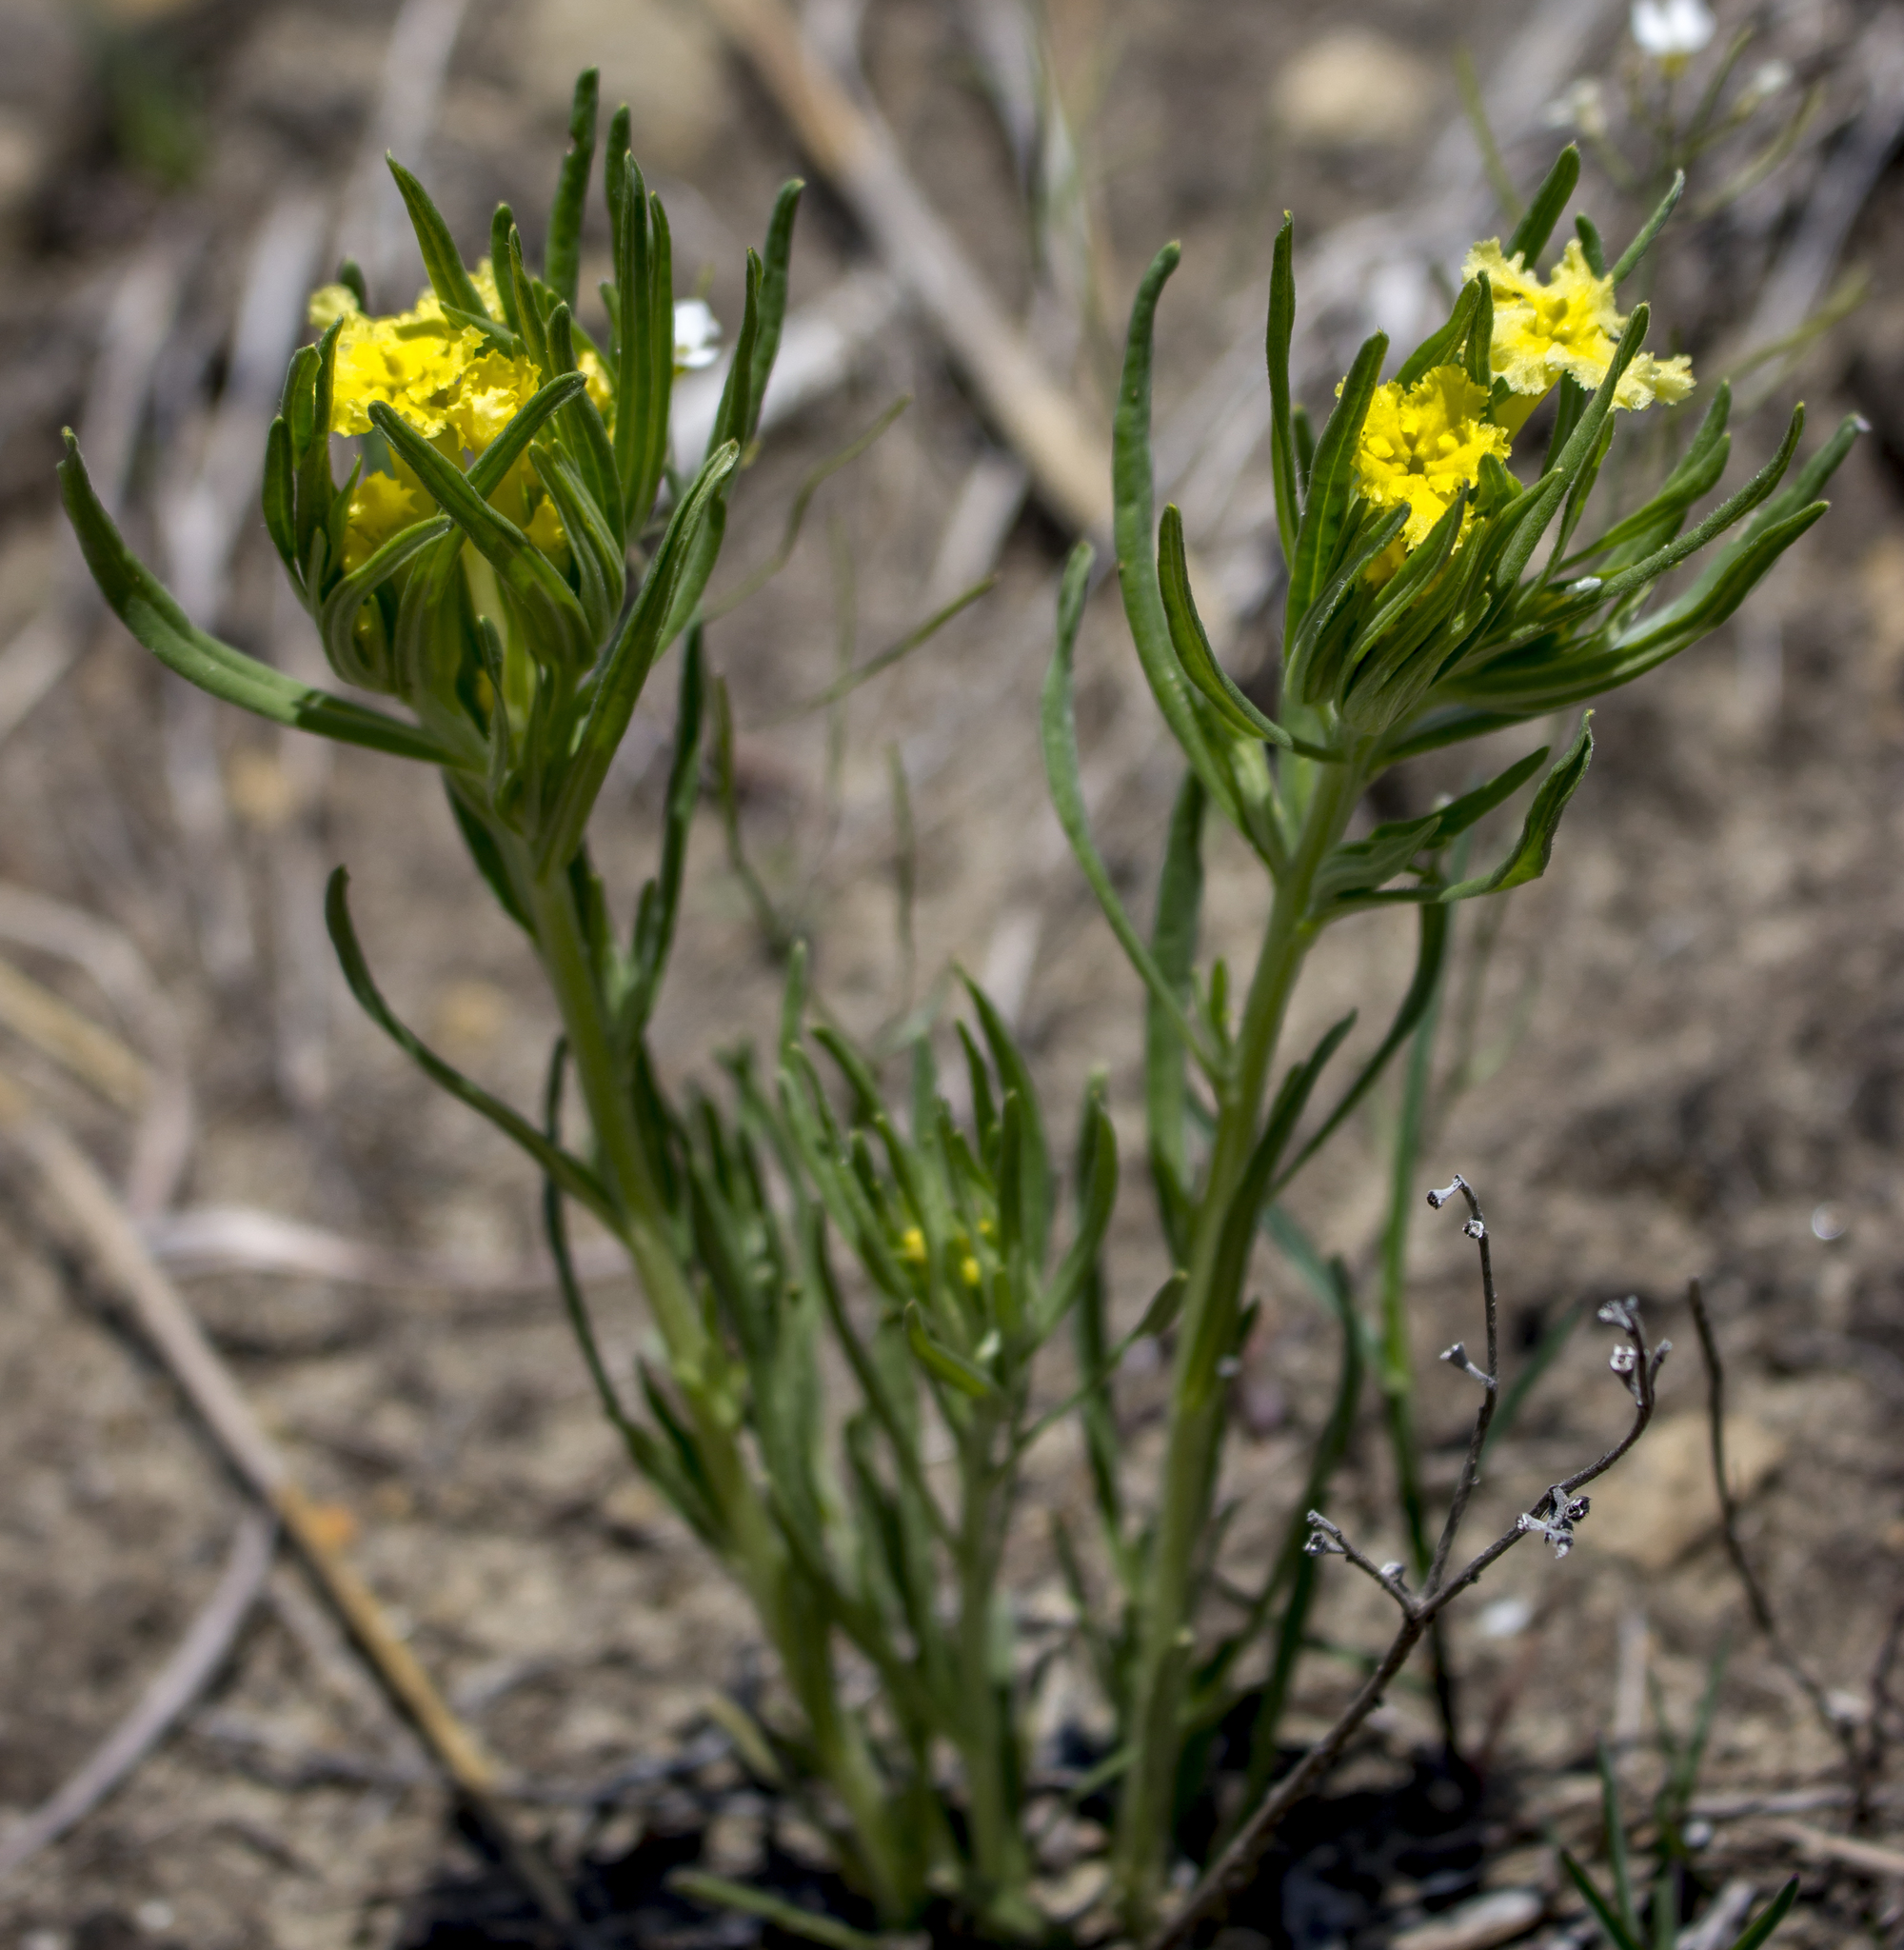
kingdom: Plantae
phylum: Tracheophyta
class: Magnoliopsida
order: Boraginales
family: Boraginaceae
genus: Lithospermum
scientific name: Lithospermum incisum
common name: Fringed gromwell
